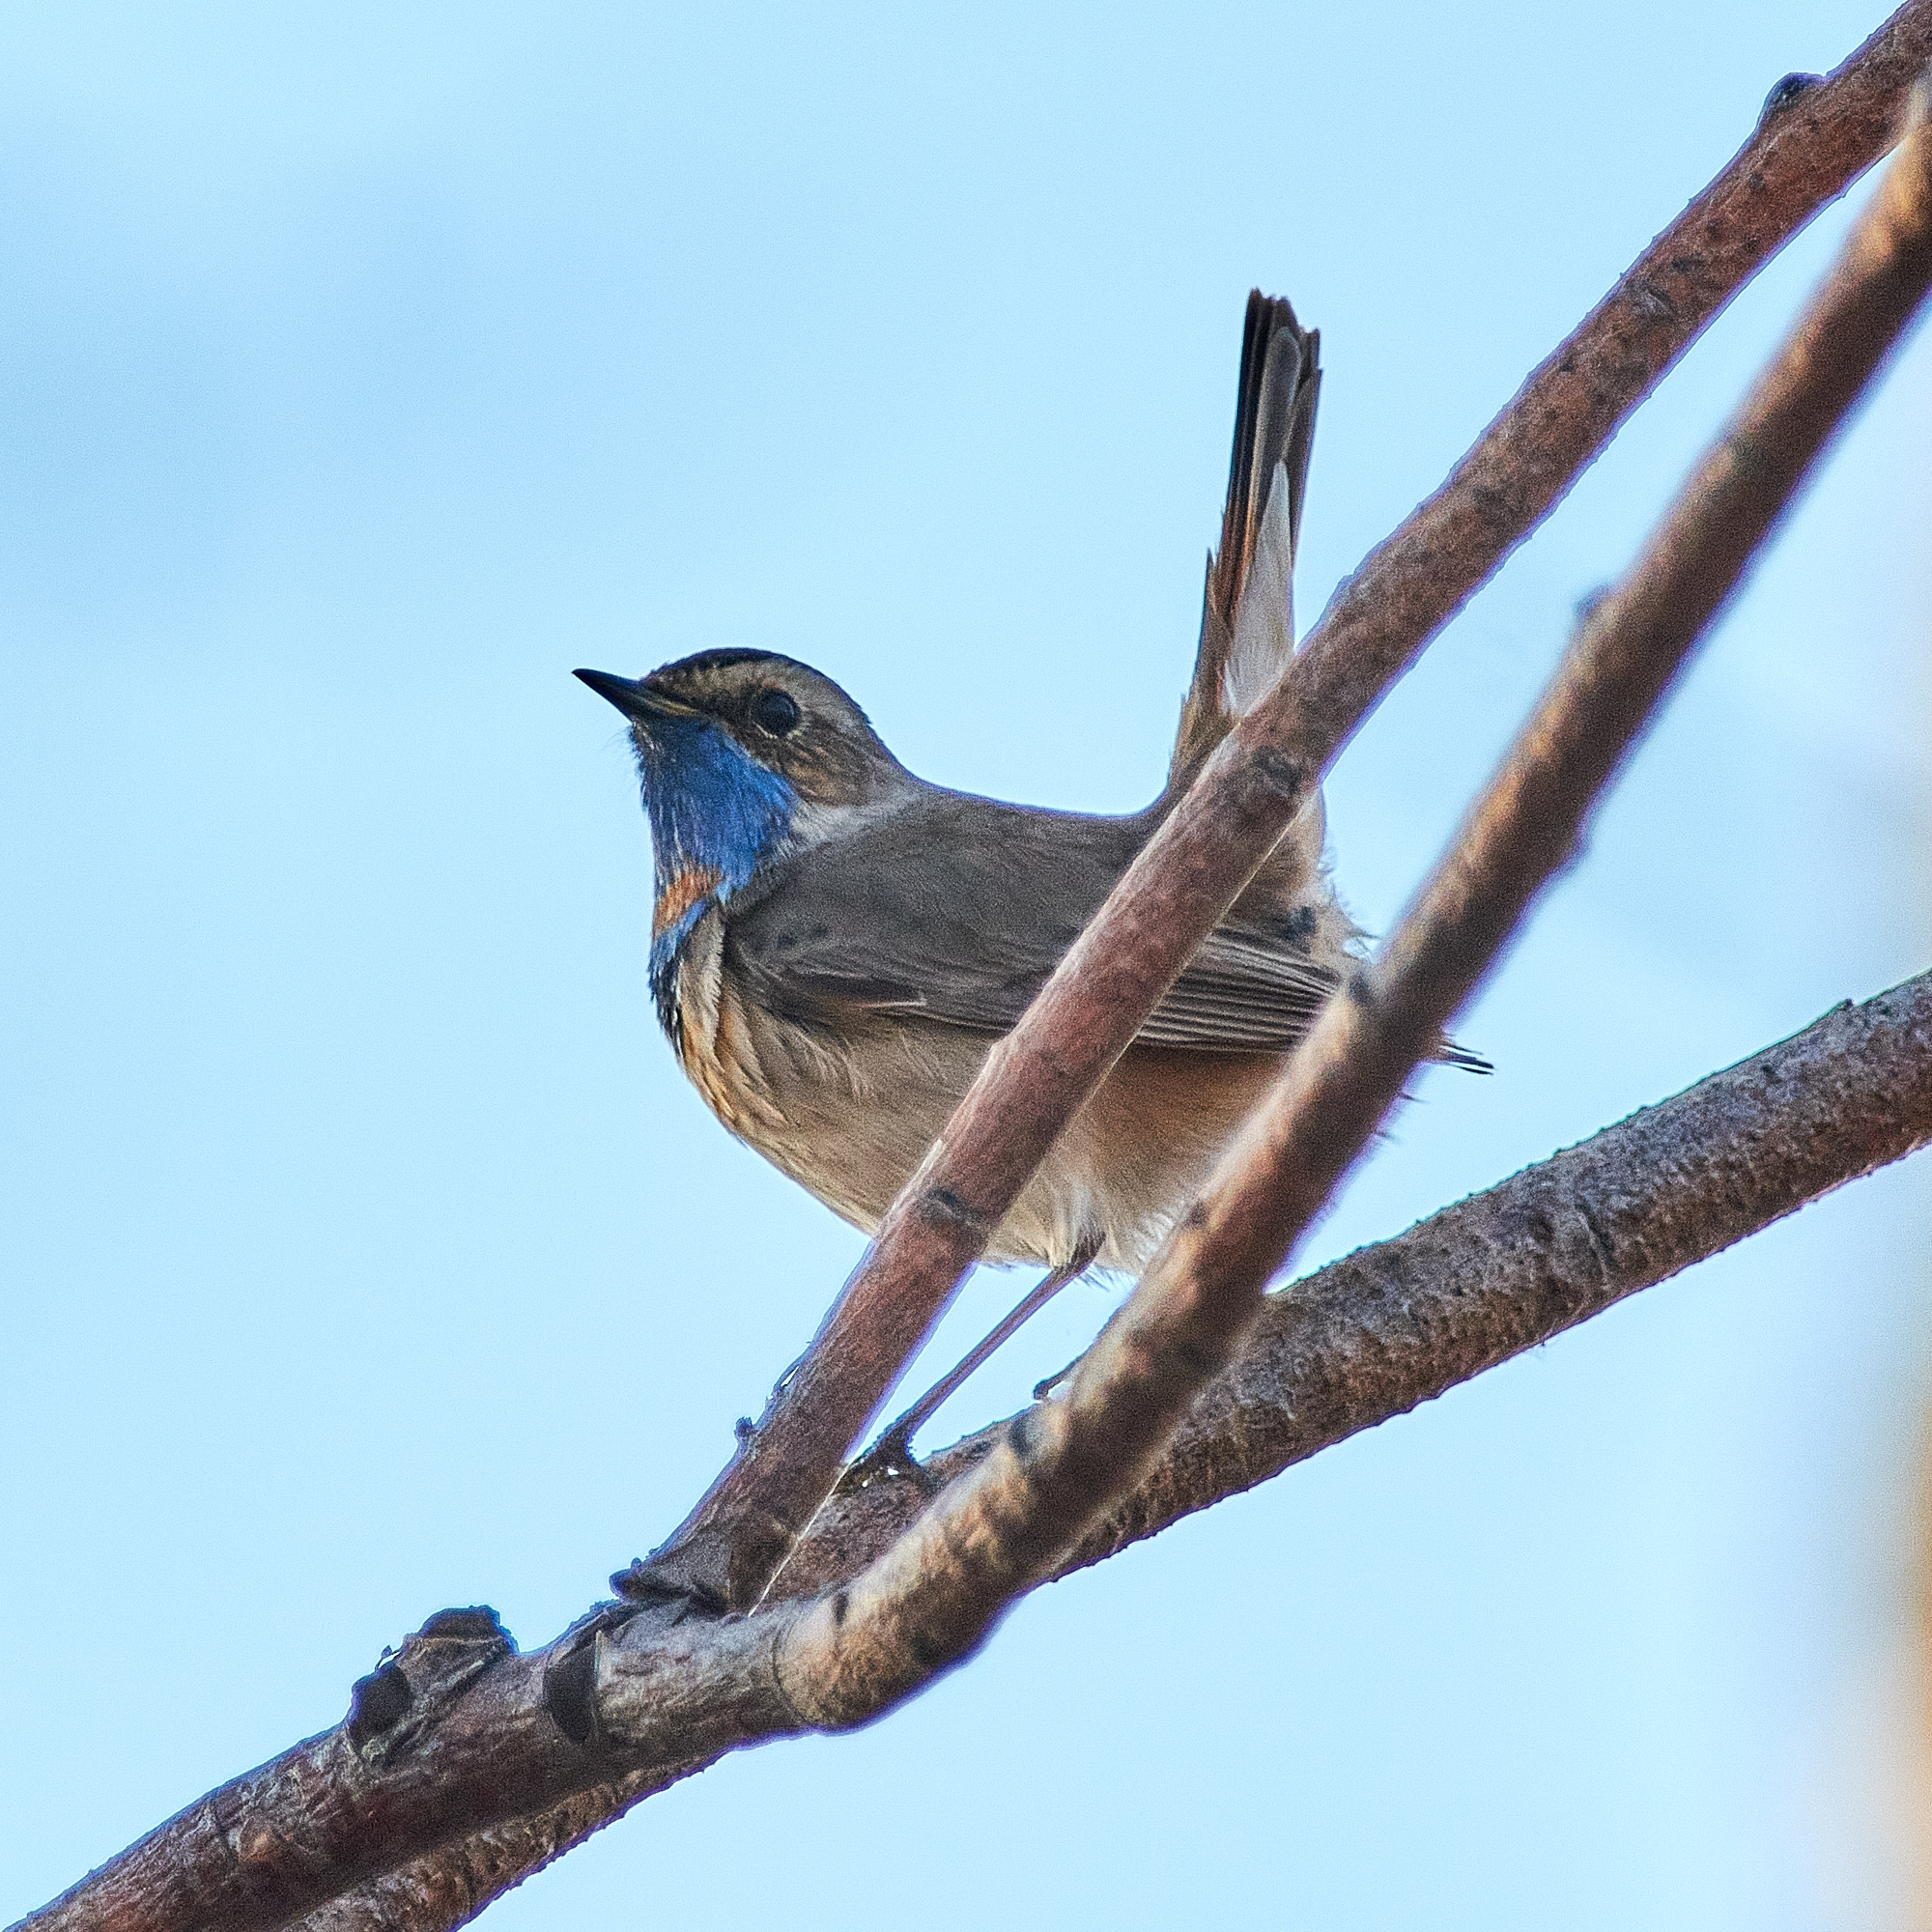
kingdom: Animalia
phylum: Chordata
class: Aves
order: Passeriformes
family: Muscicapidae
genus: Luscinia
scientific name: Luscinia svecica
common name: Bluethroat
